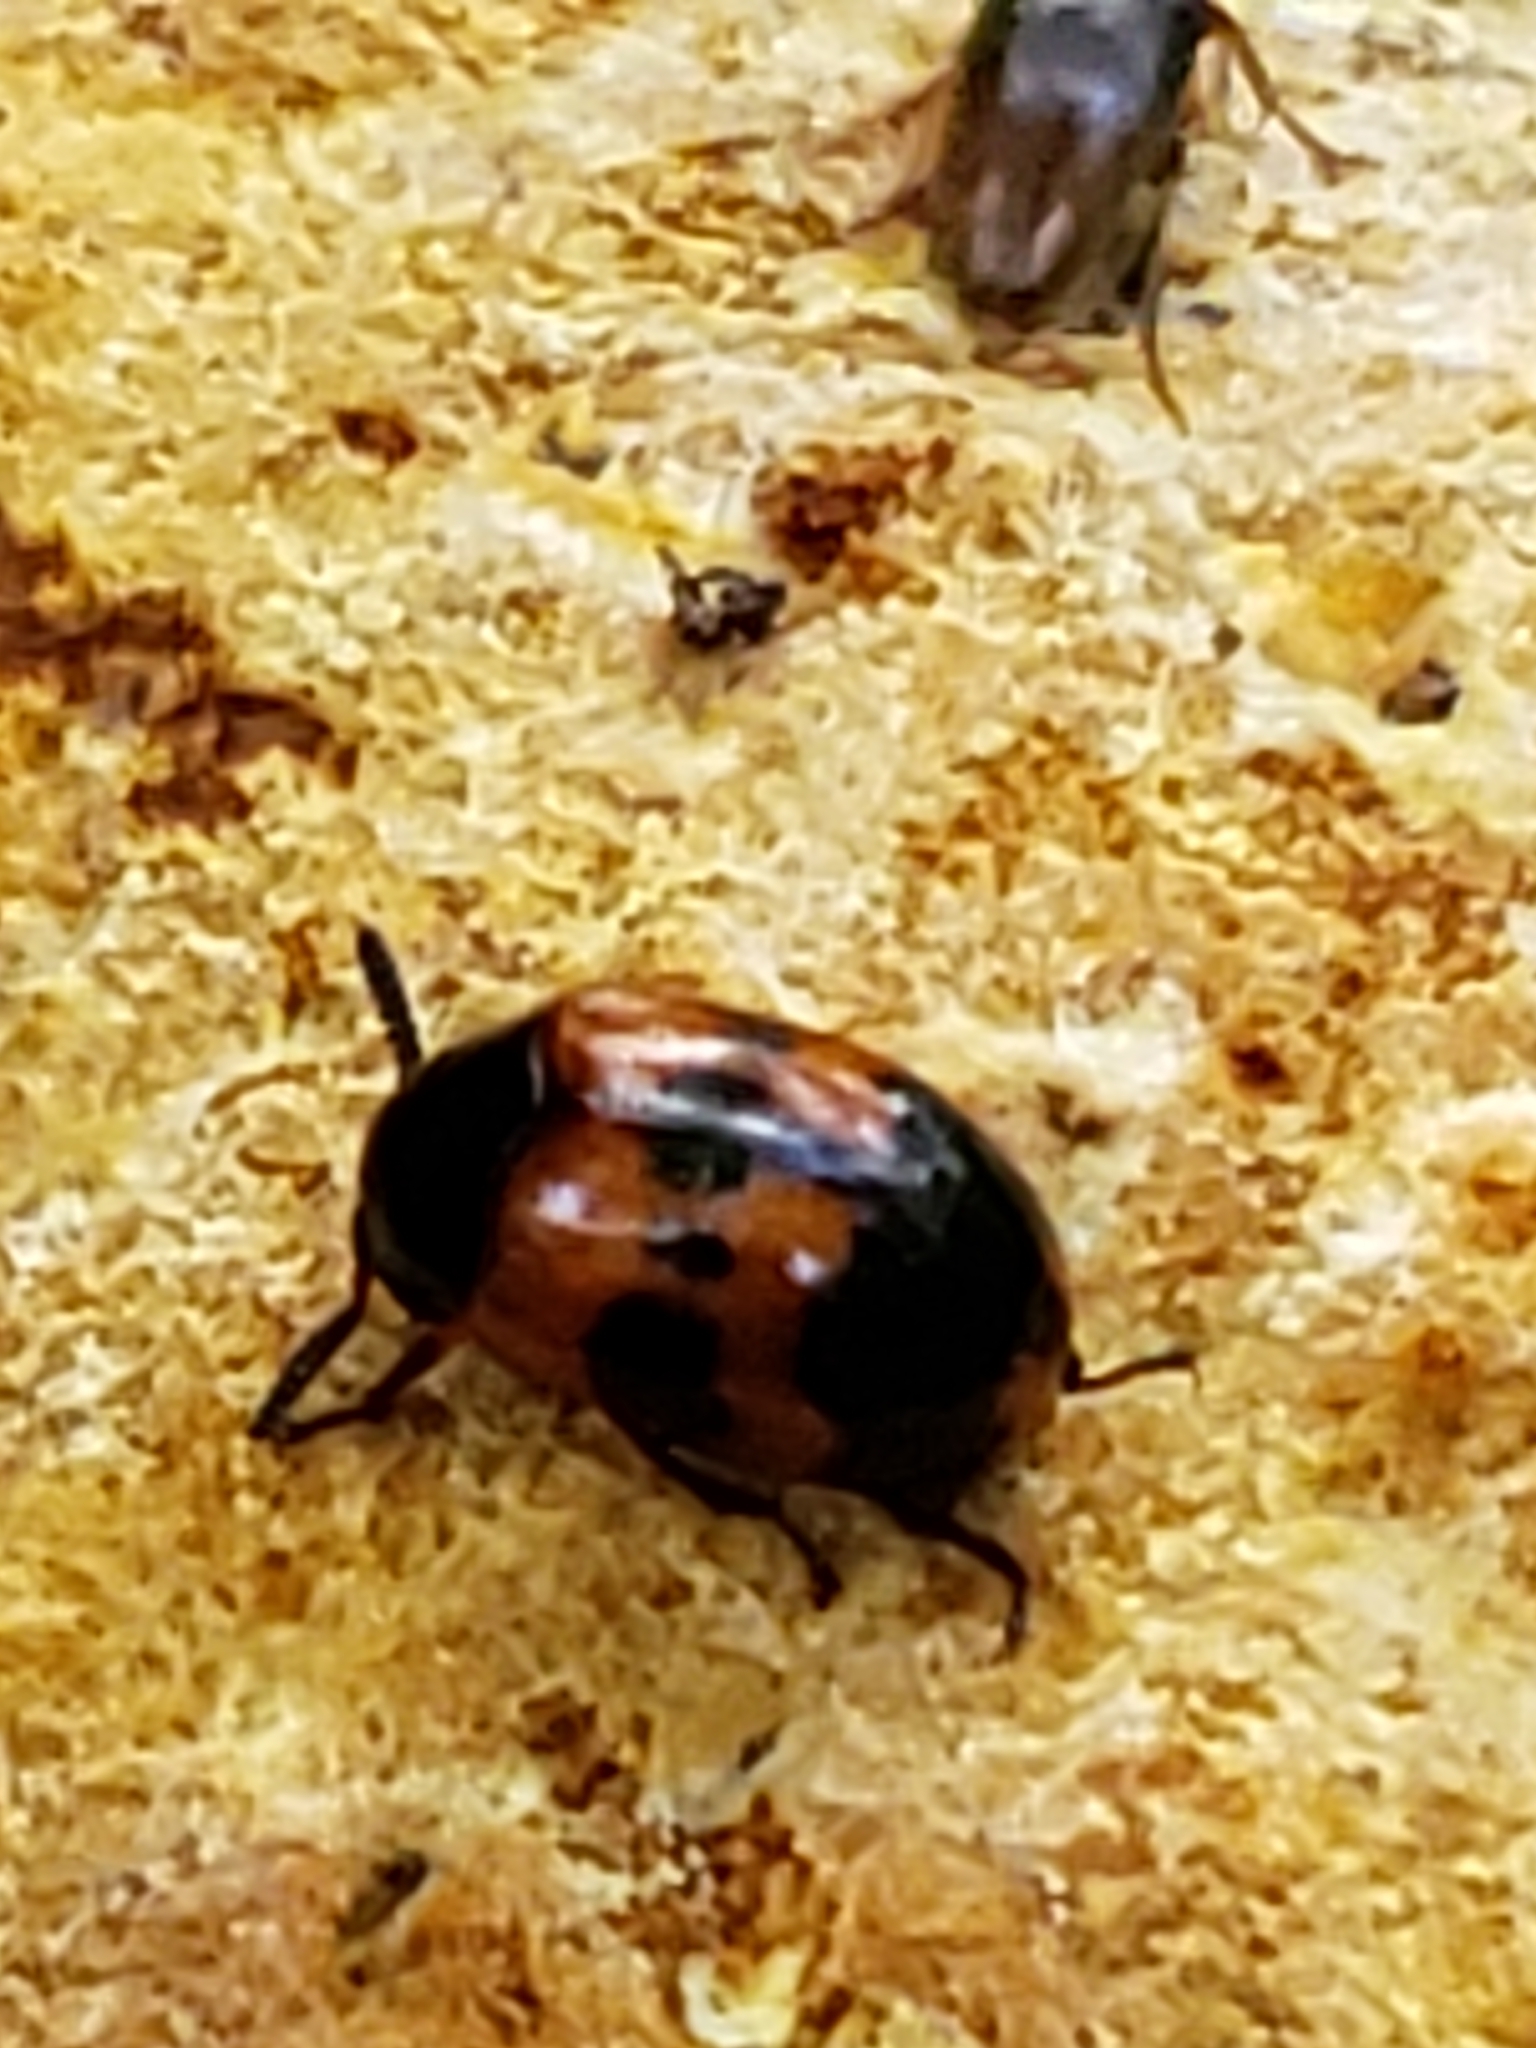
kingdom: Animalia
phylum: Arthropoda
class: Insecta
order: Coleoptera
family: Tenebrionidae
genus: Diaperis
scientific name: Diaperis nigronotata
